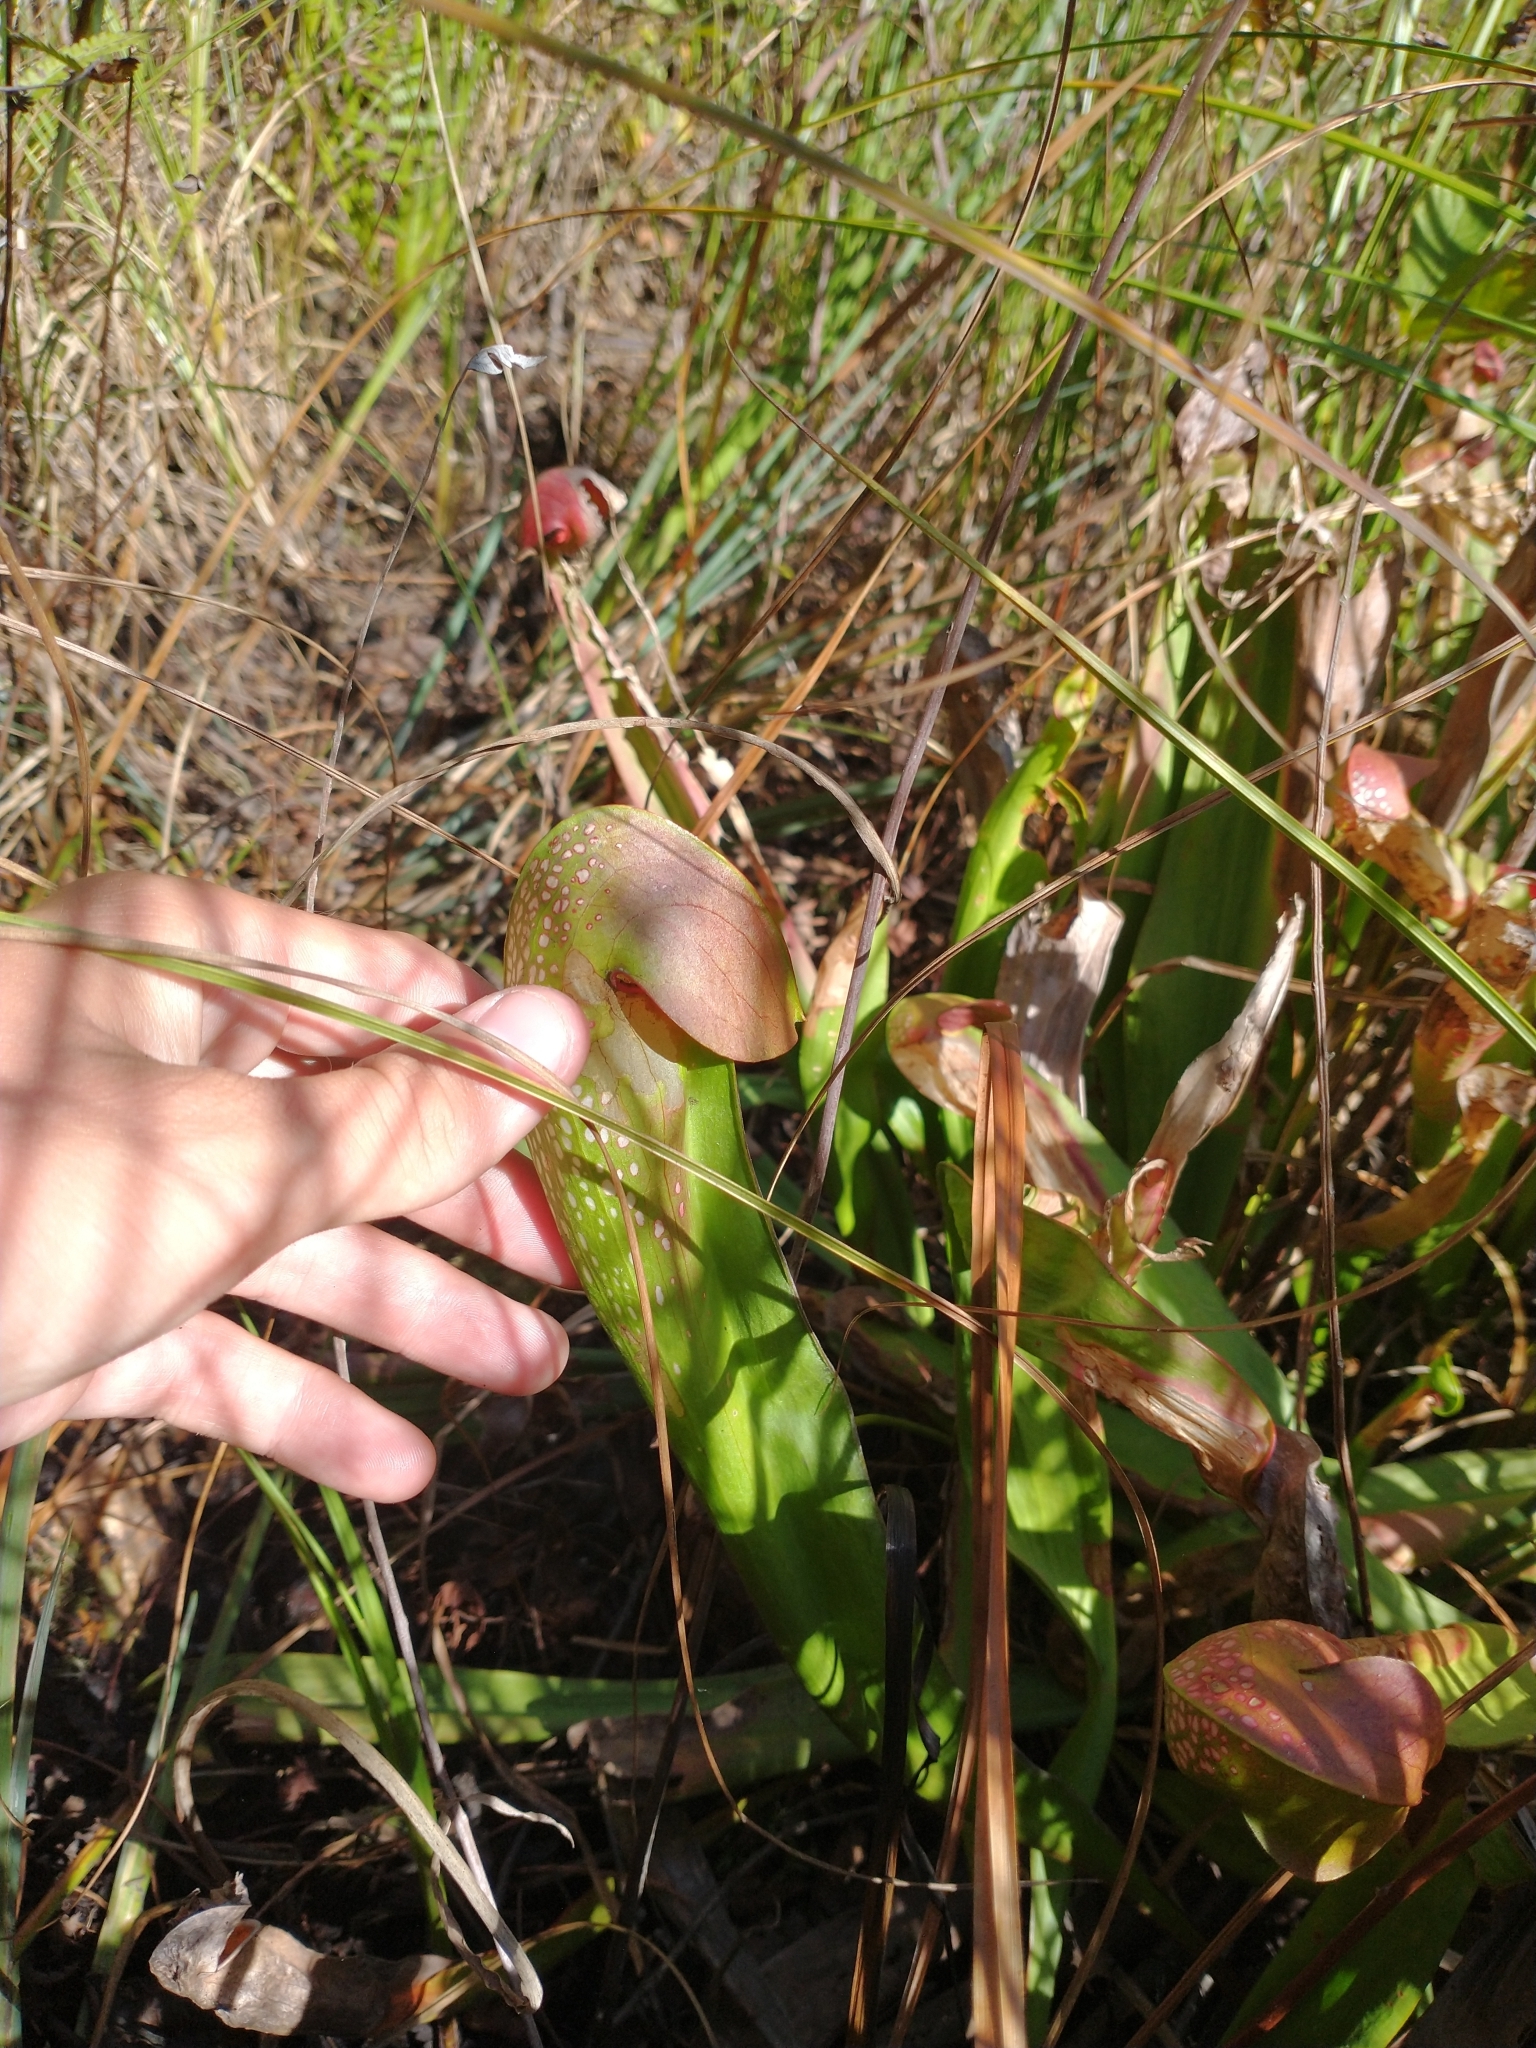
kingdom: Plantae
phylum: Tracheophyta
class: Magnoliopsida
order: Ericales
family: Sarraceniaceae
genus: Sarracenia
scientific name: Sarracenia minor
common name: Rainhat-trumpet
